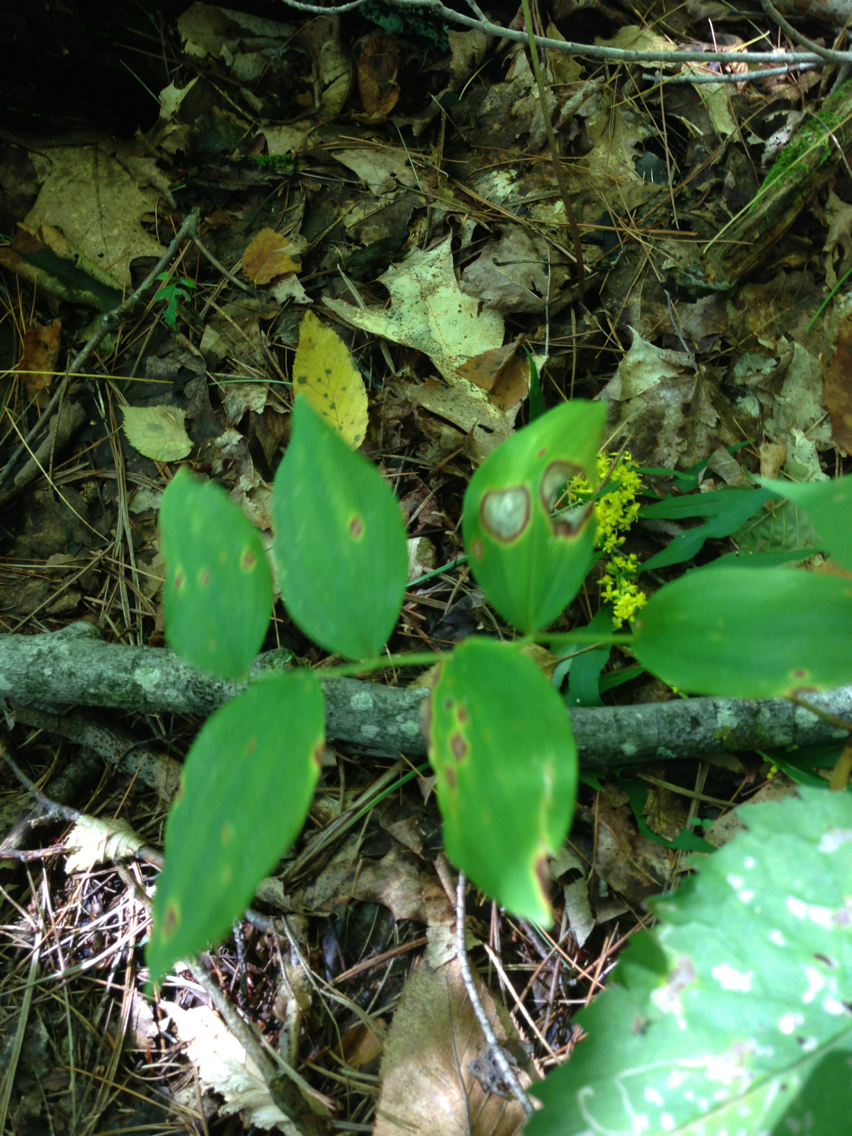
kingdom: Plantae
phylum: Tracheophyta
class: Liliopsida
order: Asparagales
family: Asparagaceae
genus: Polygonatum
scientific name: Polygonatum pubescens
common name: Downy solomon's seal
